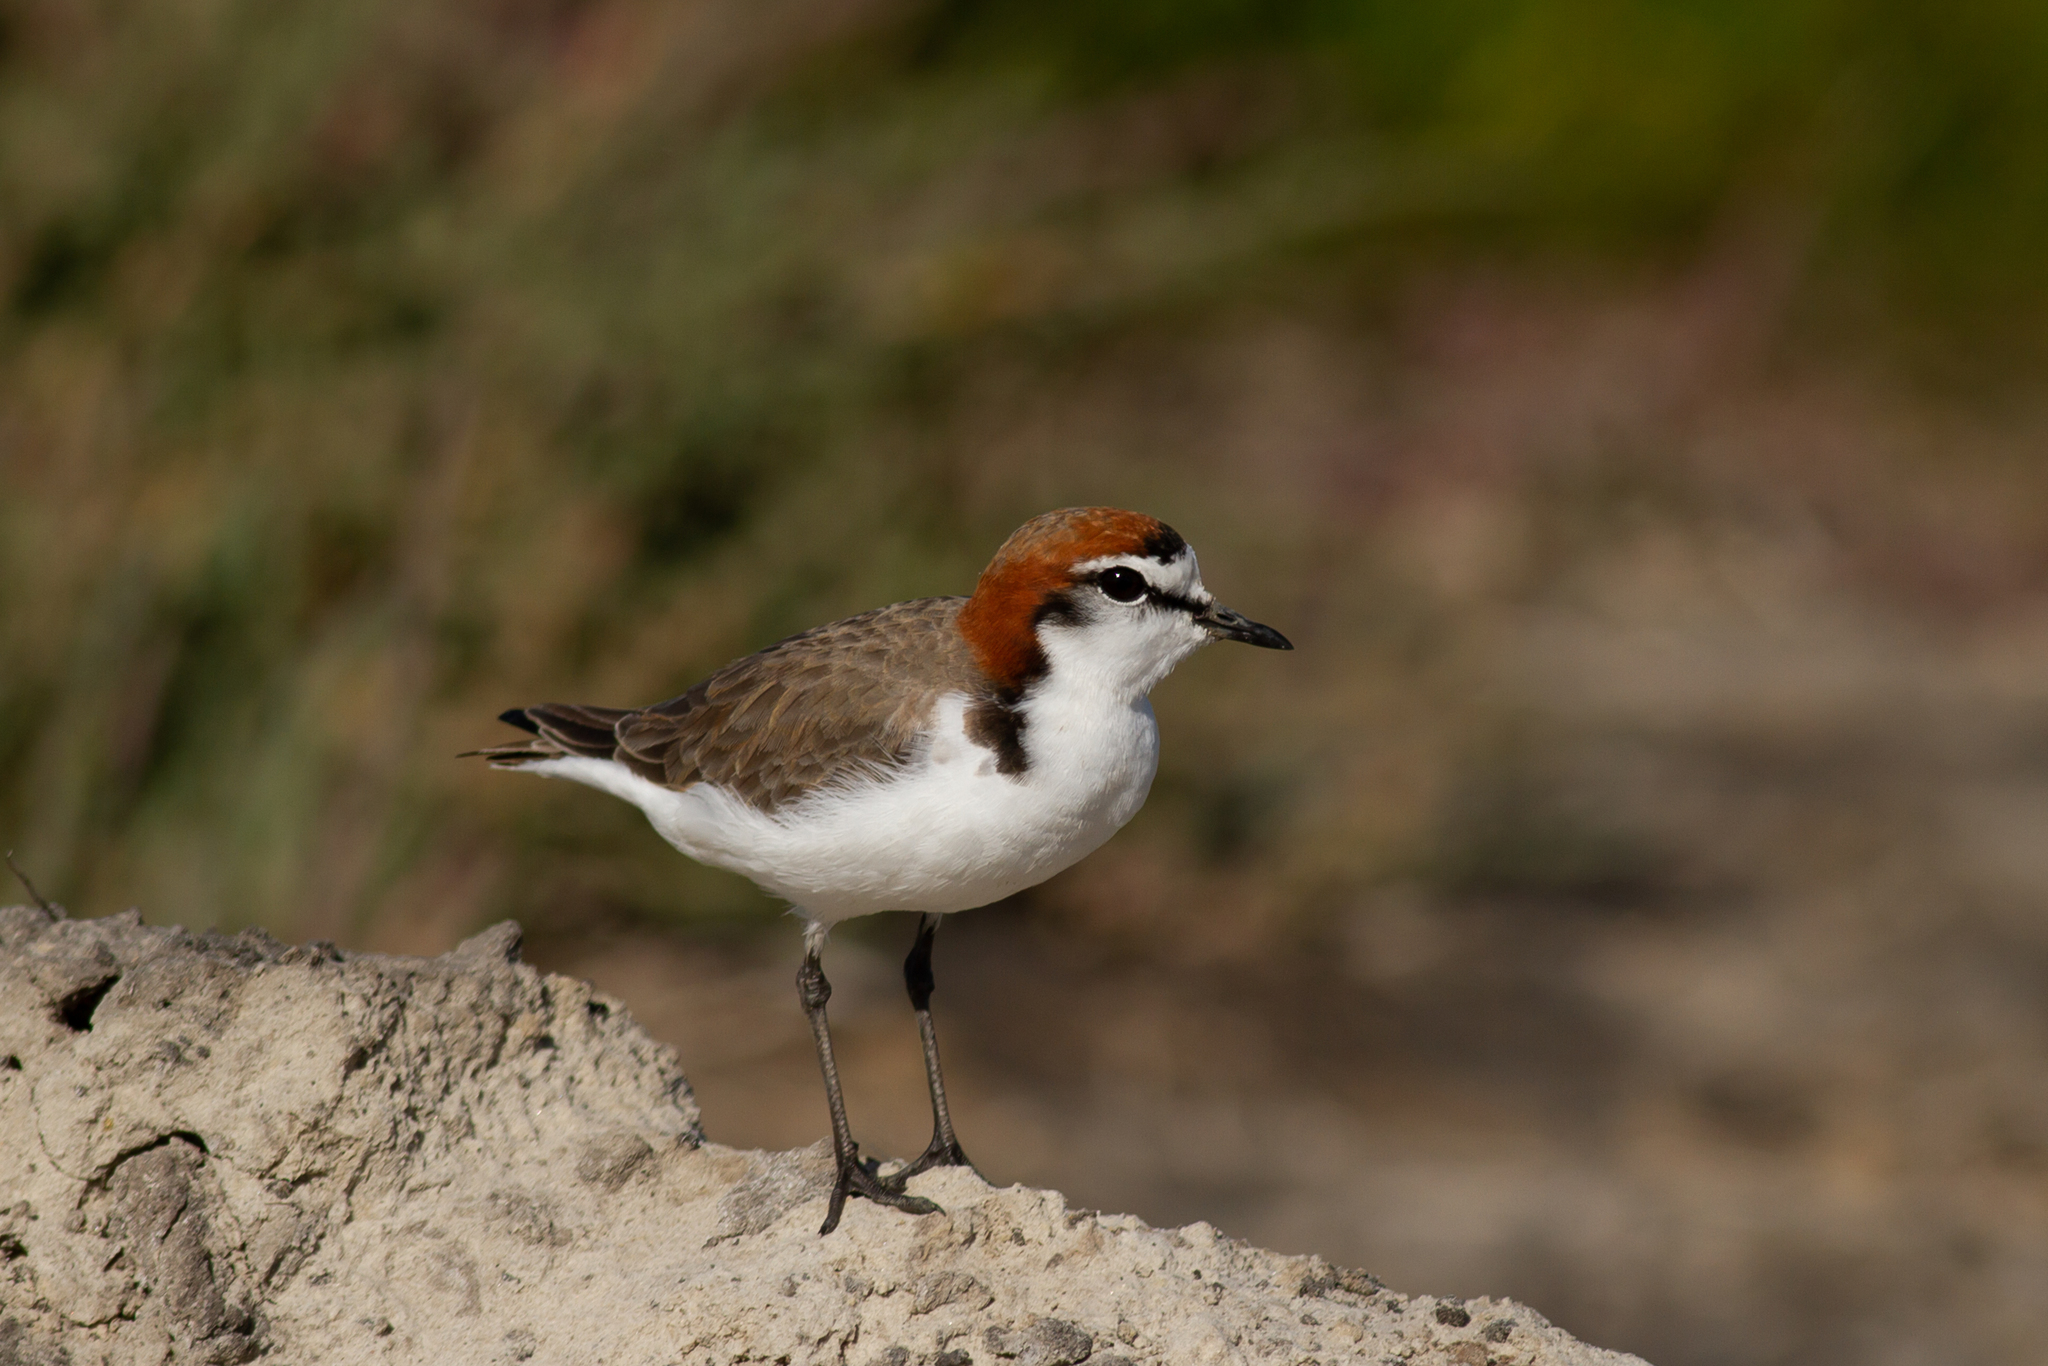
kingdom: Animalia
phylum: Chordata
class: Aves
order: Charadriiformes
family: Charadriidae
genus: Anarhynchus
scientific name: Anarhynchus
